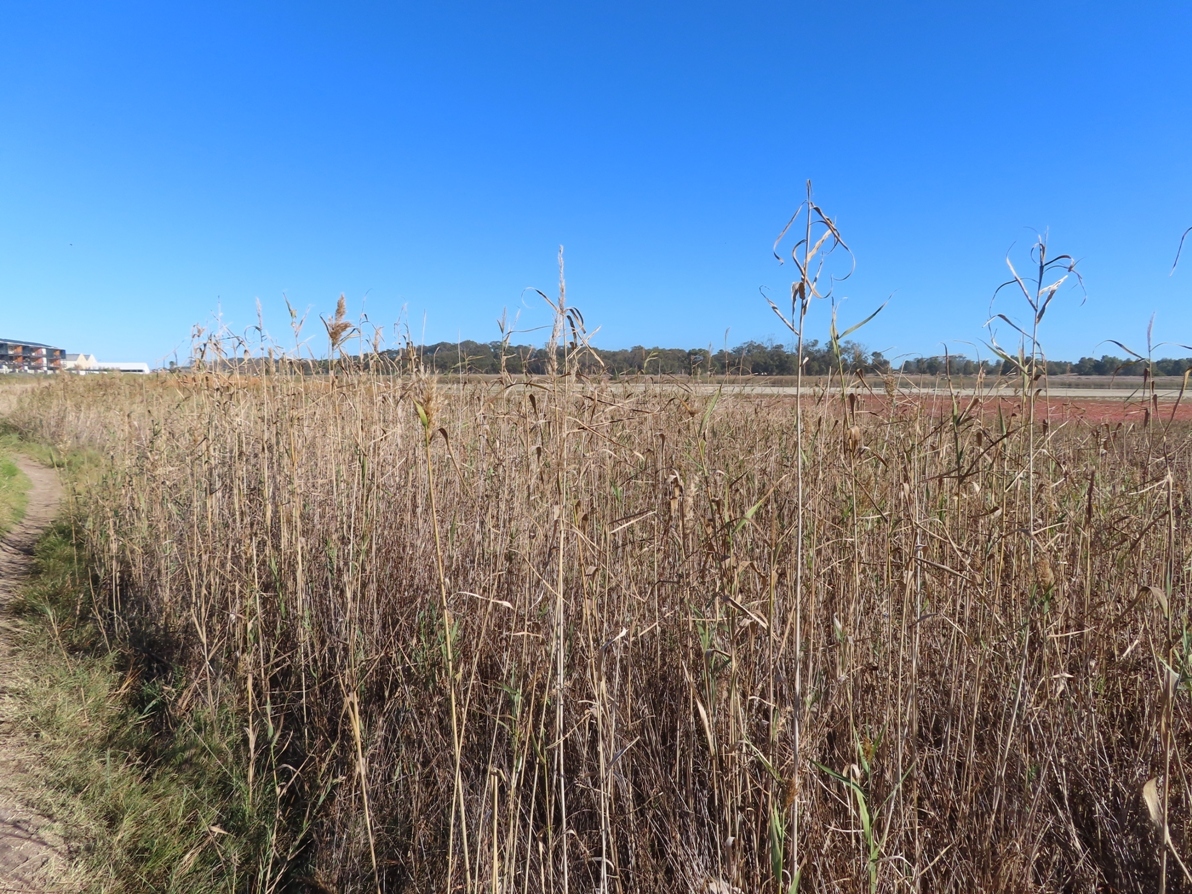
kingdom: Plantae
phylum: Tracheophyta
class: Liliopsida
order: Poales
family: Poaceae
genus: Phragmites
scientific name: Phragmites australis
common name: Common reed
